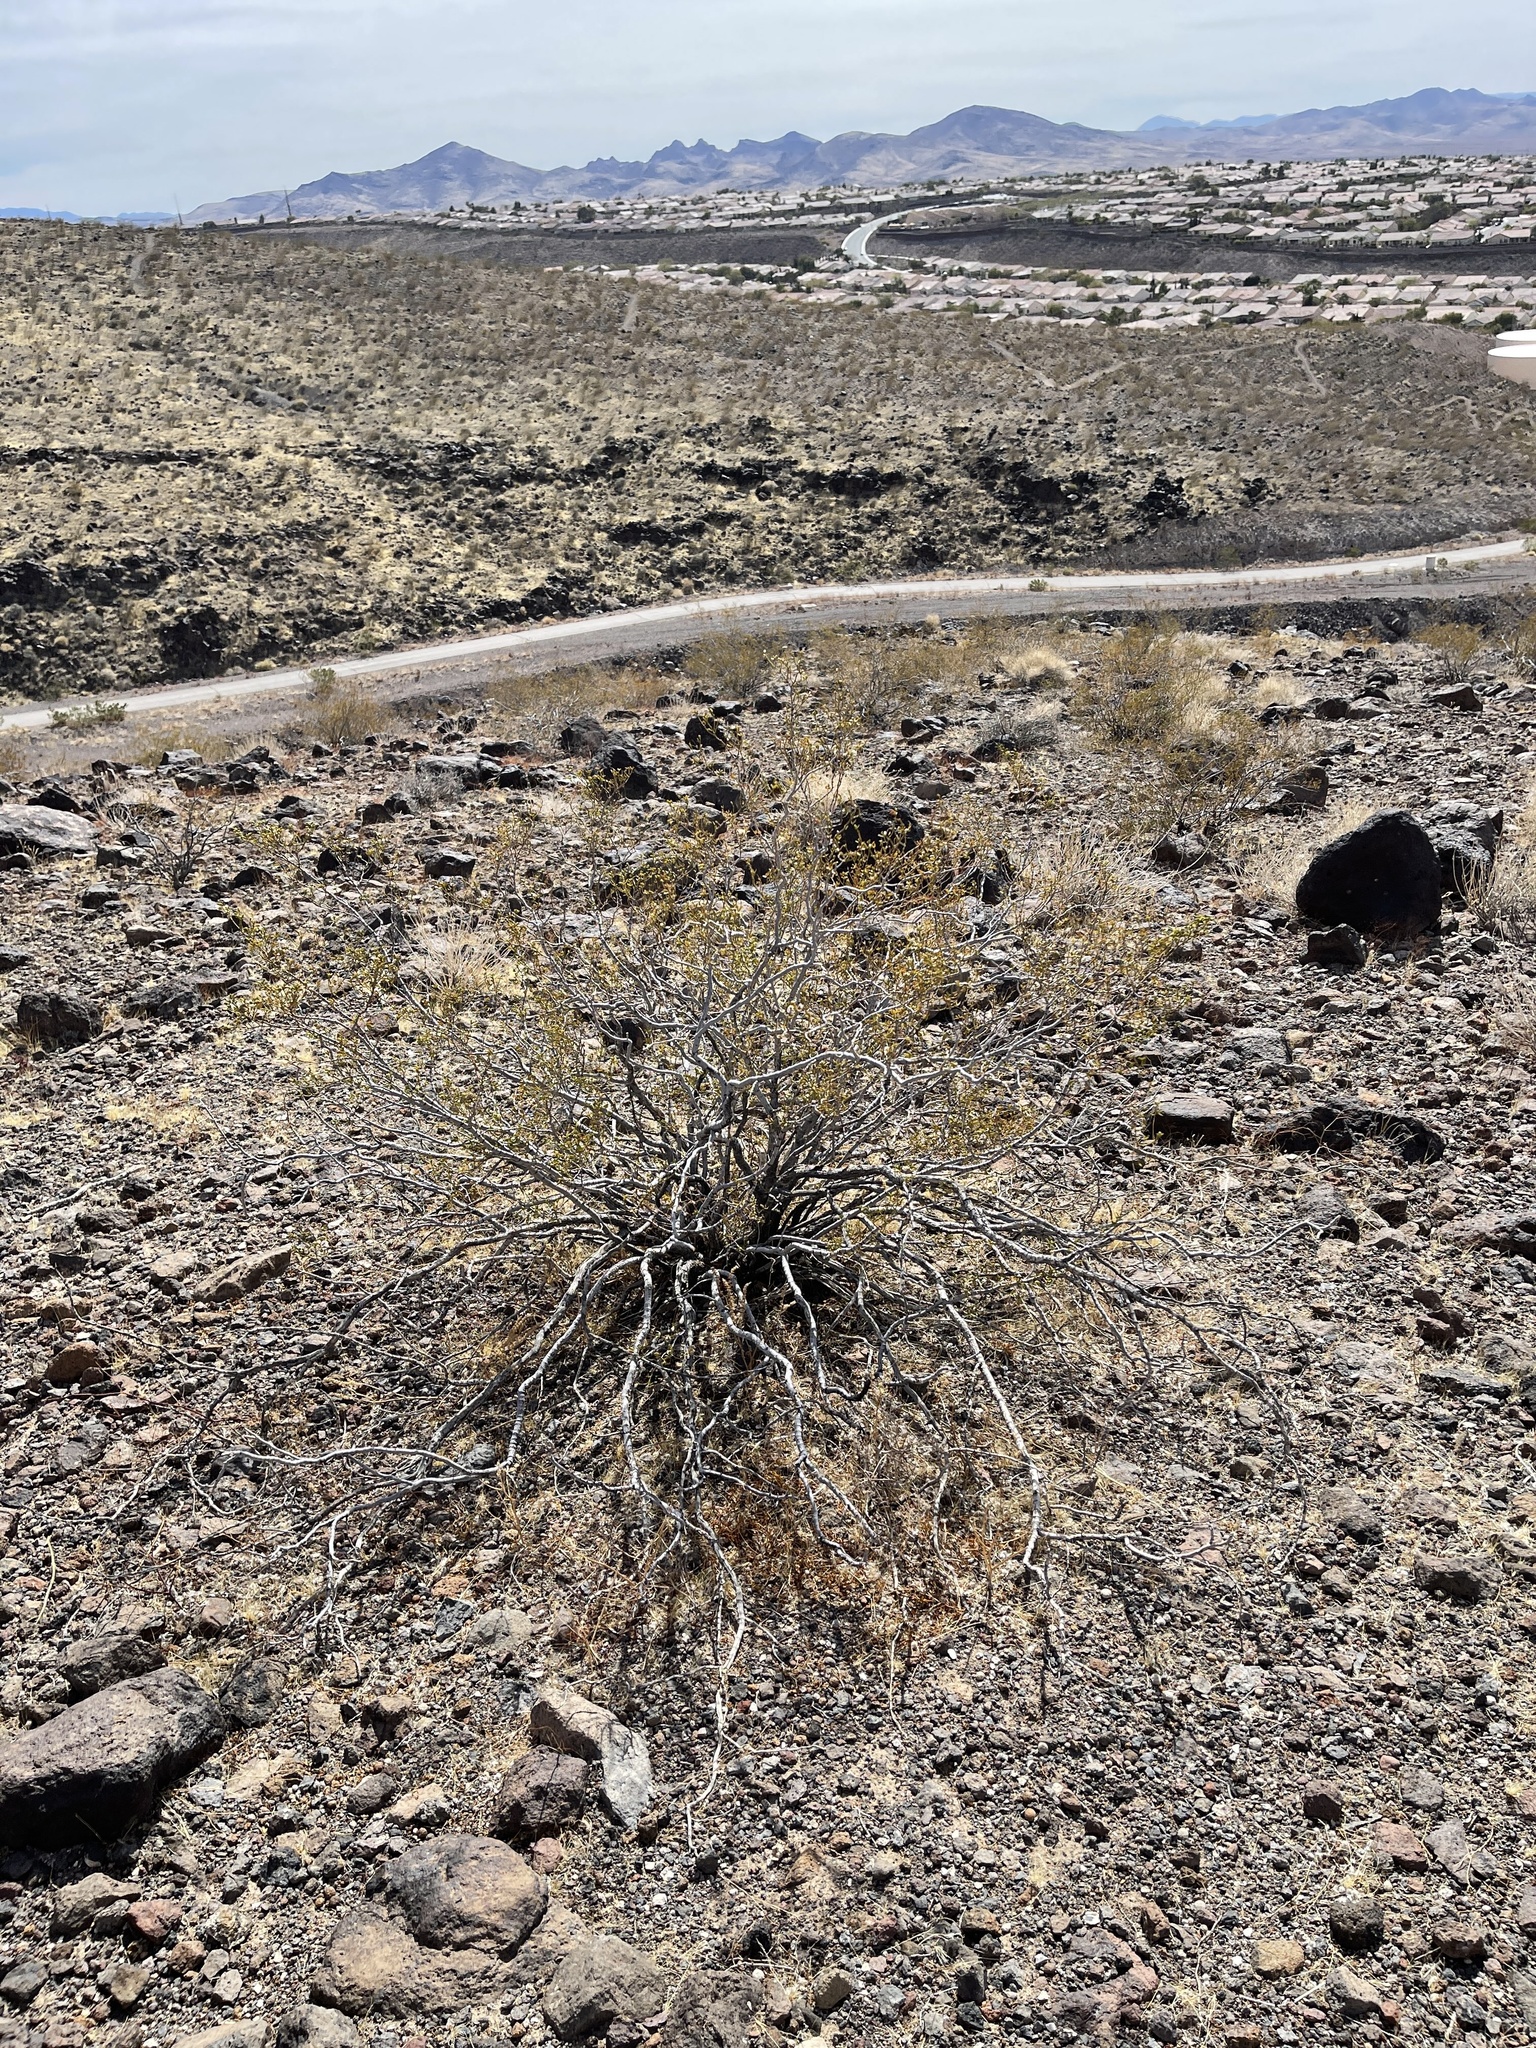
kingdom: Plantae
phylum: Tracheophyta
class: Magnoliopsida
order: Zygophyllales
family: Zygophyllaceae
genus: Larrea
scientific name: Larrea tridentata
